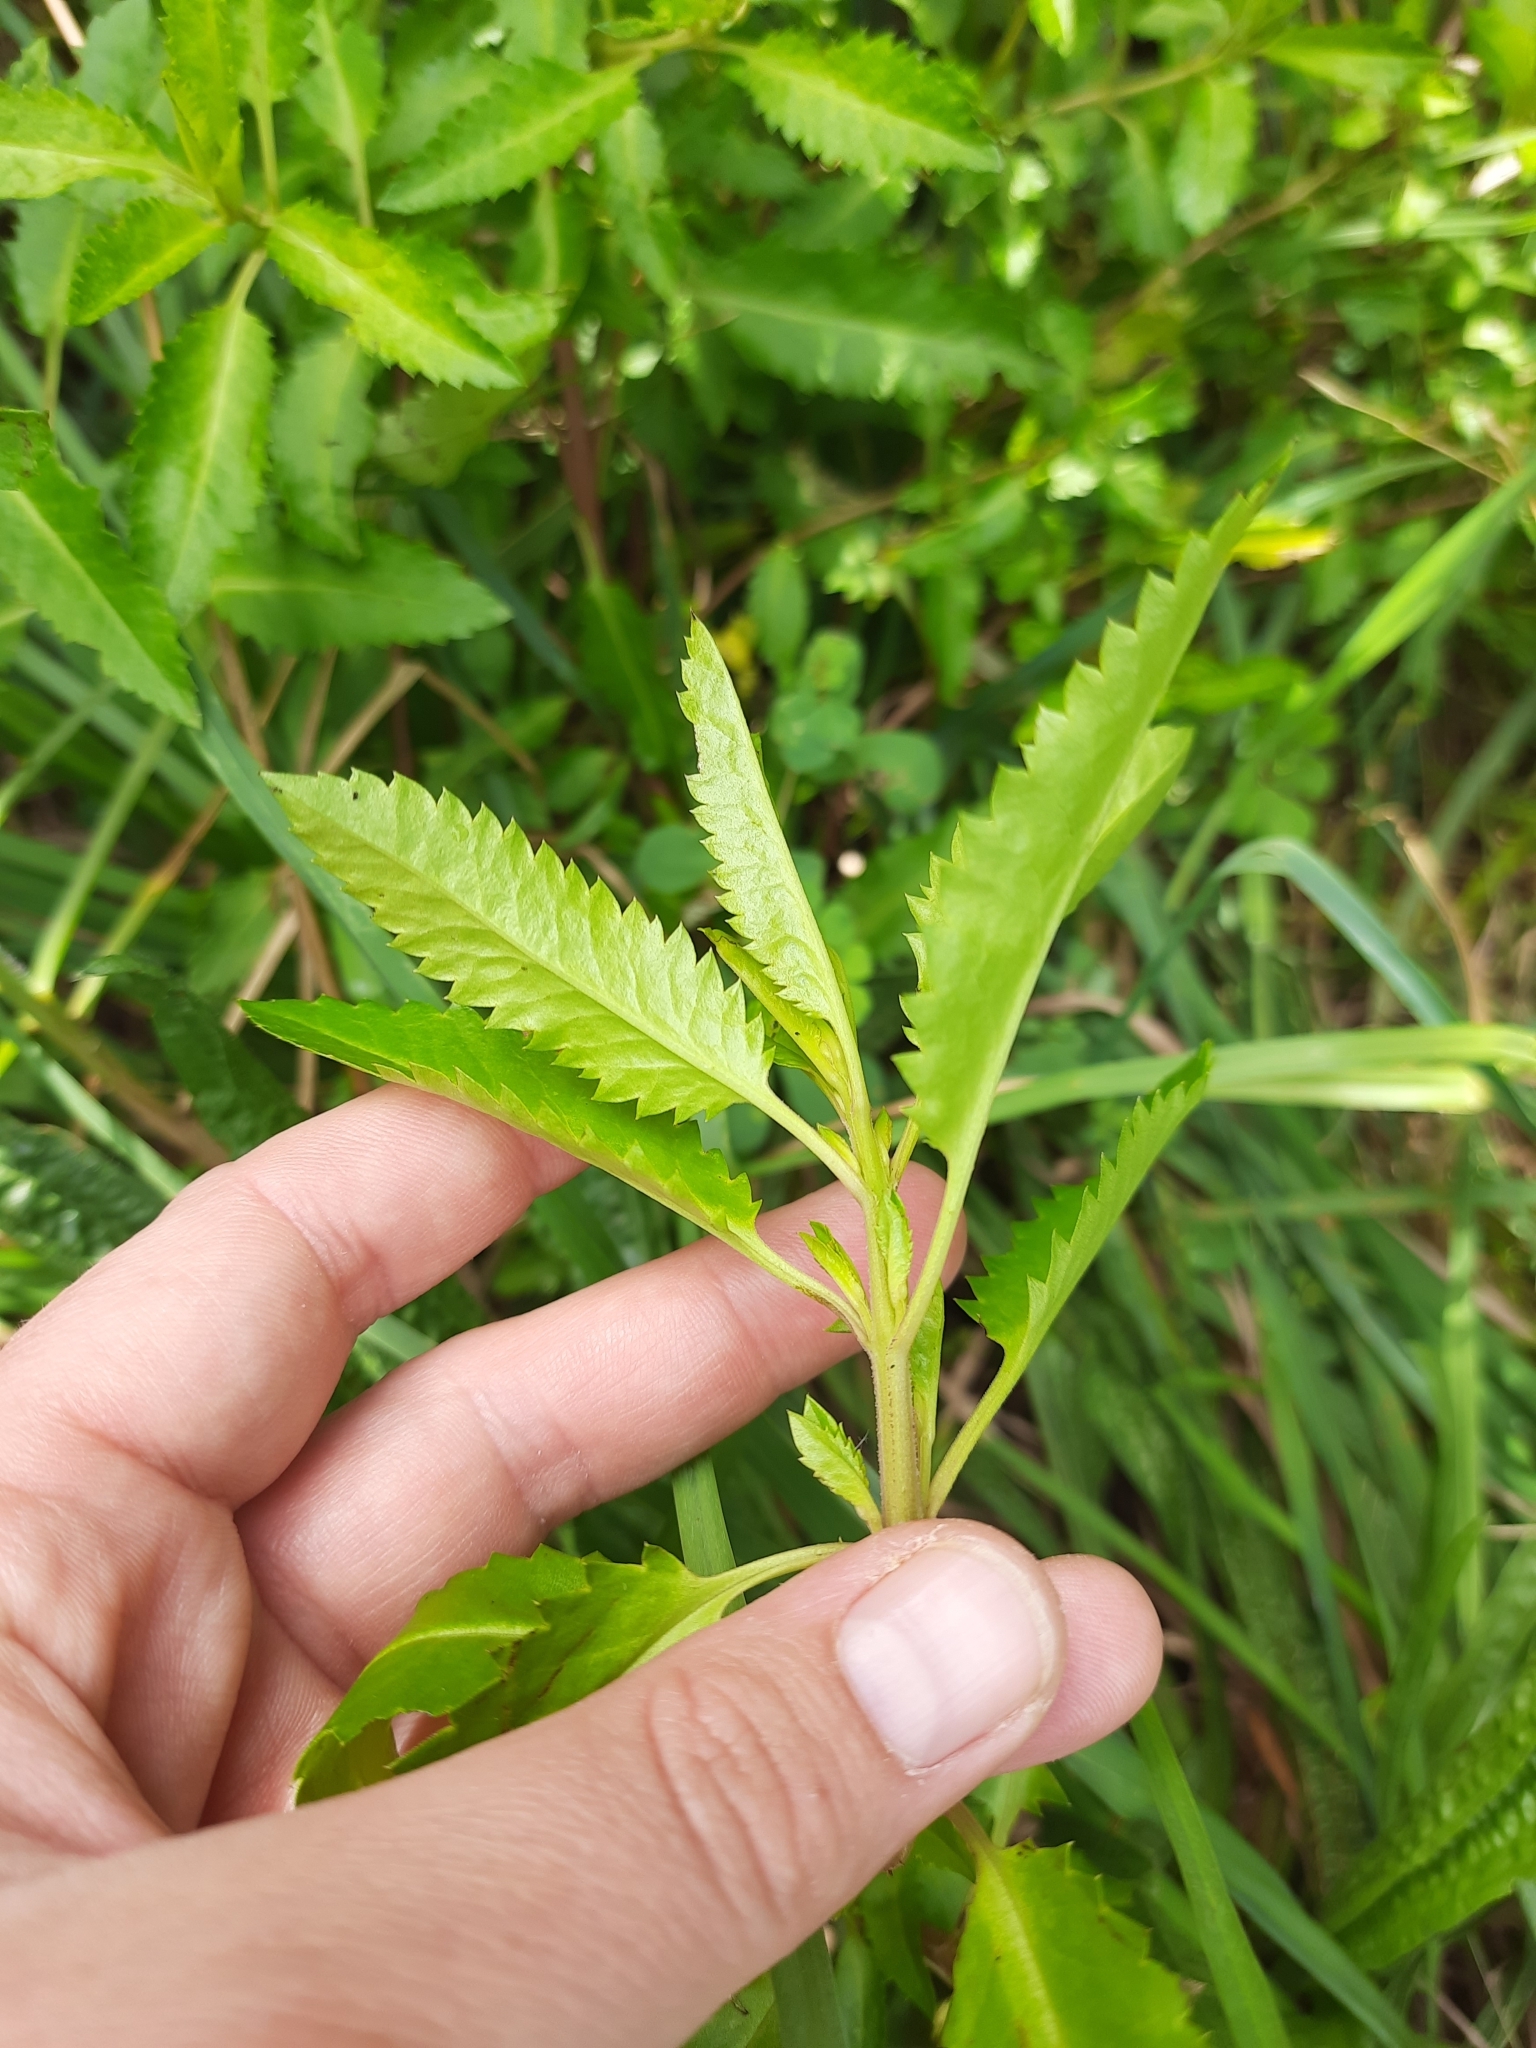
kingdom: Plantae
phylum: Tracheophyta
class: Magnoliopsida
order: Saxifragales
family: Haloragaceae
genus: Haloragis
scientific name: Haloragis erecta
